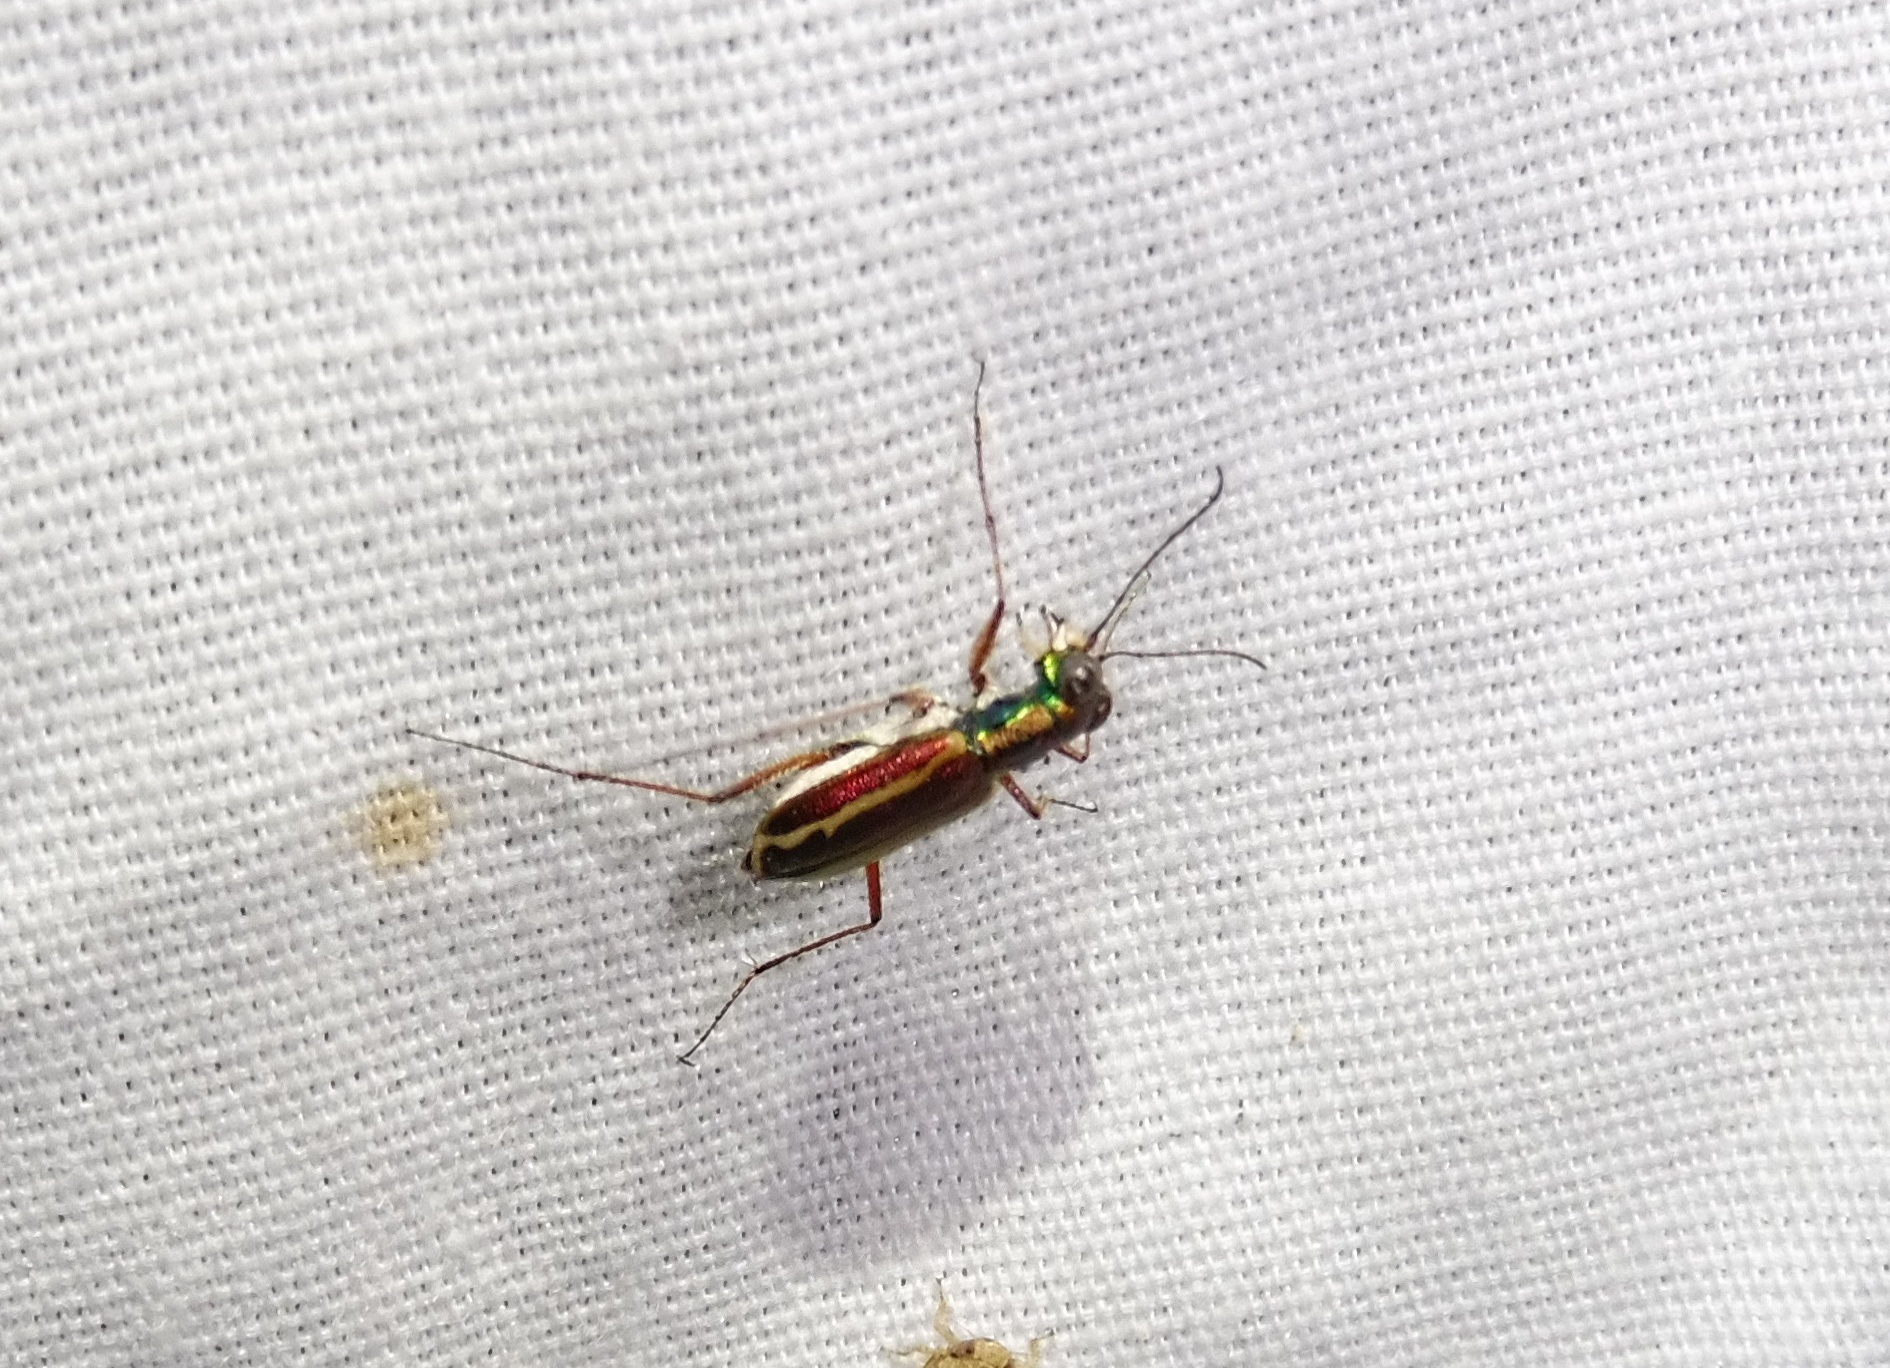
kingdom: Animalia
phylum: Arthropoda
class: Insecta
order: Coleoptera
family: Carabidae
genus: Cylindera
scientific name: Cylindera lemniscata
